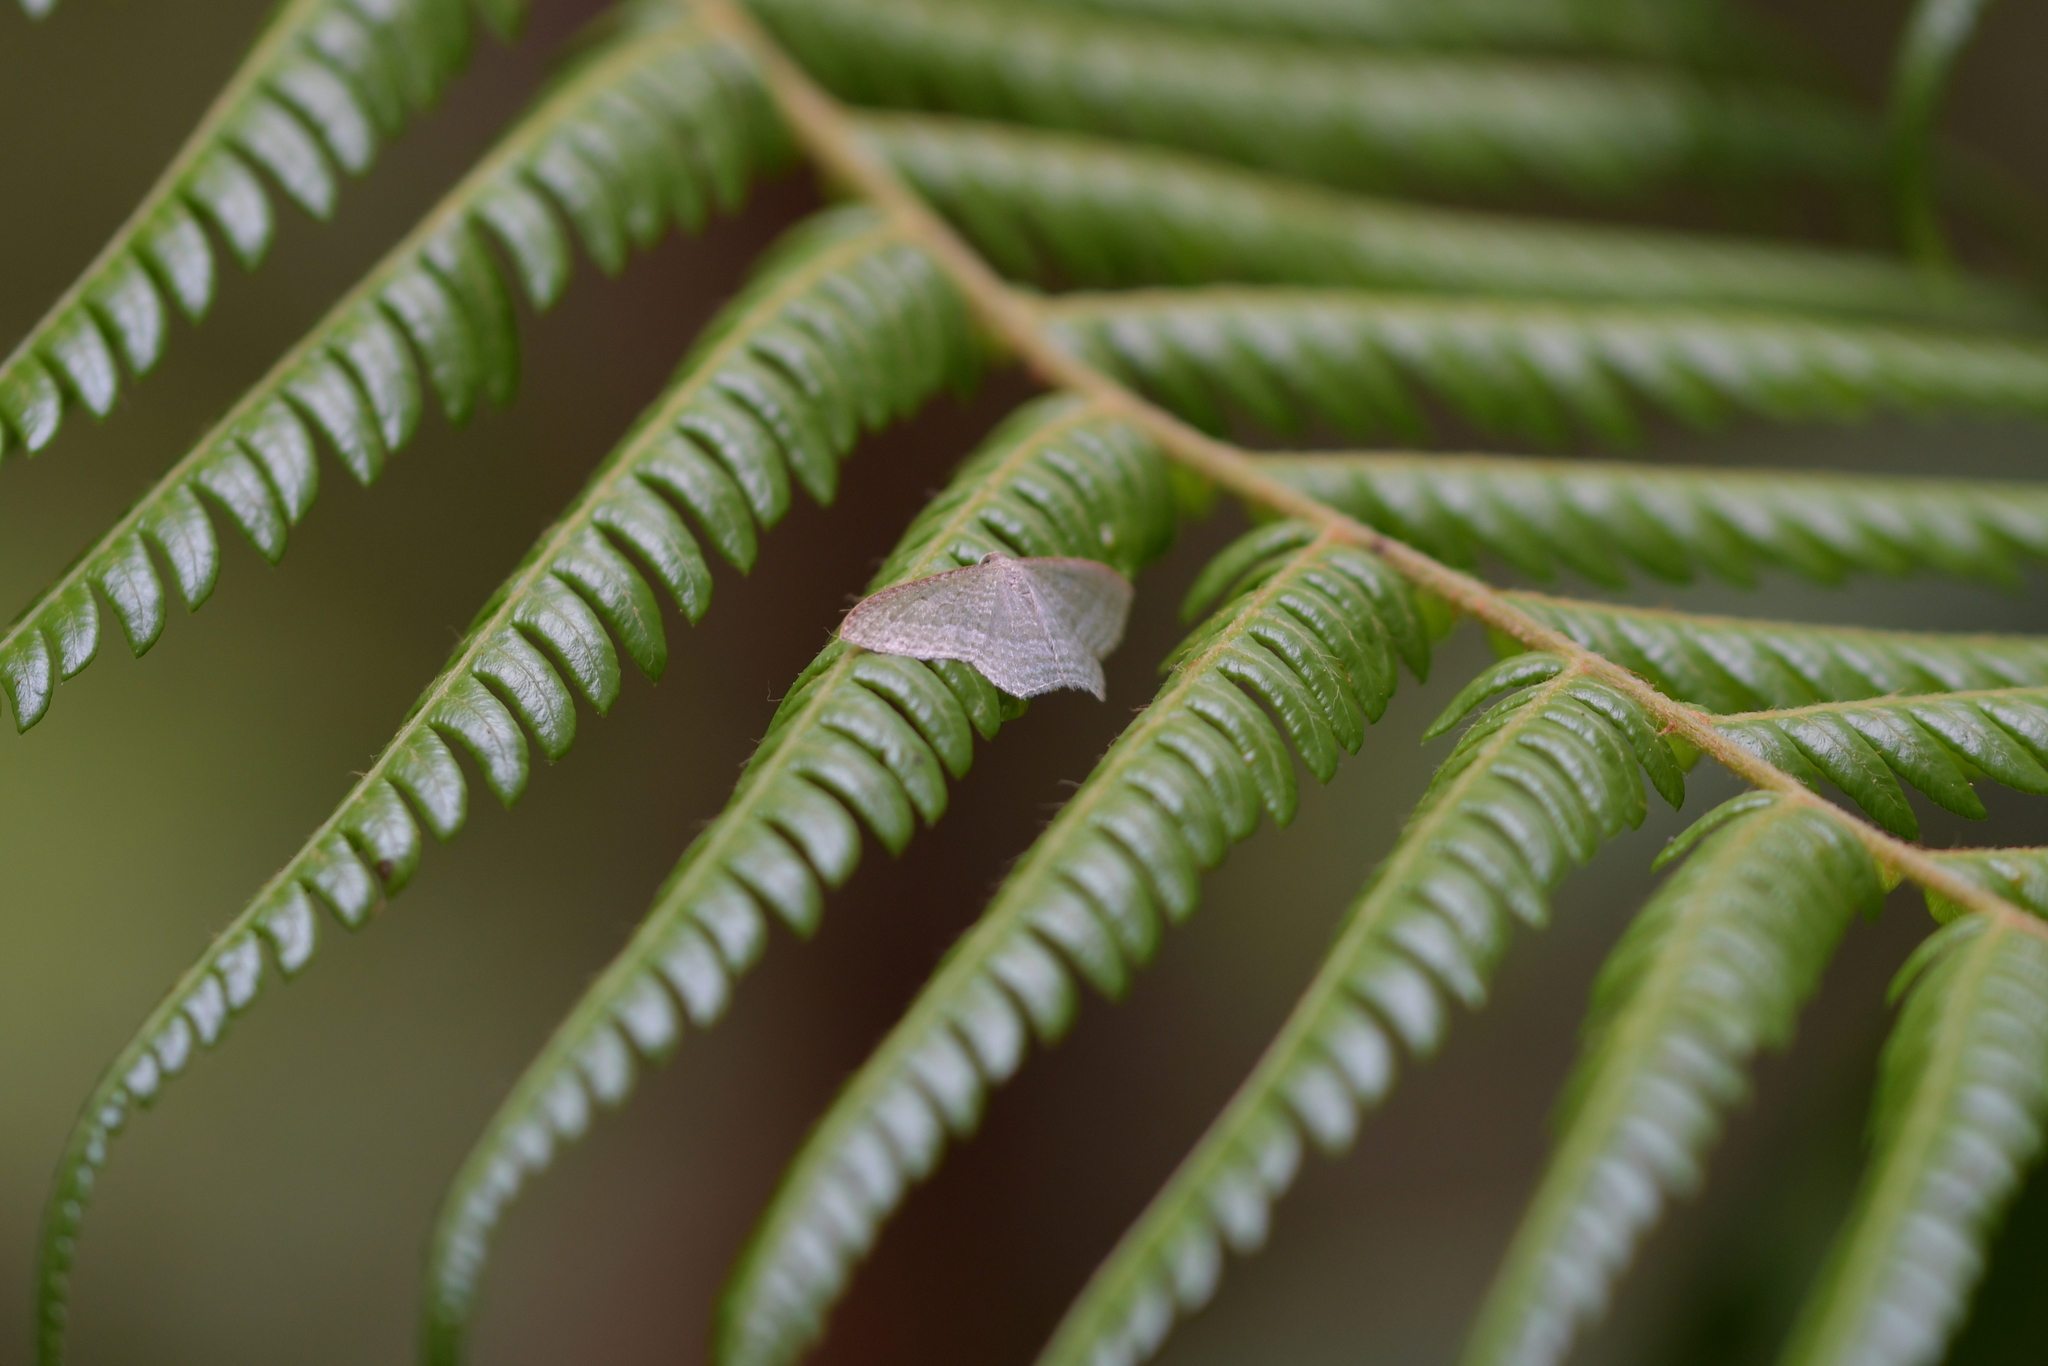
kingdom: Animalia
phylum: Arthropoda
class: Insecta
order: Lepidoptera
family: Geometridae
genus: Poecilasthena
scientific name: Poecilasthena pulchraria
